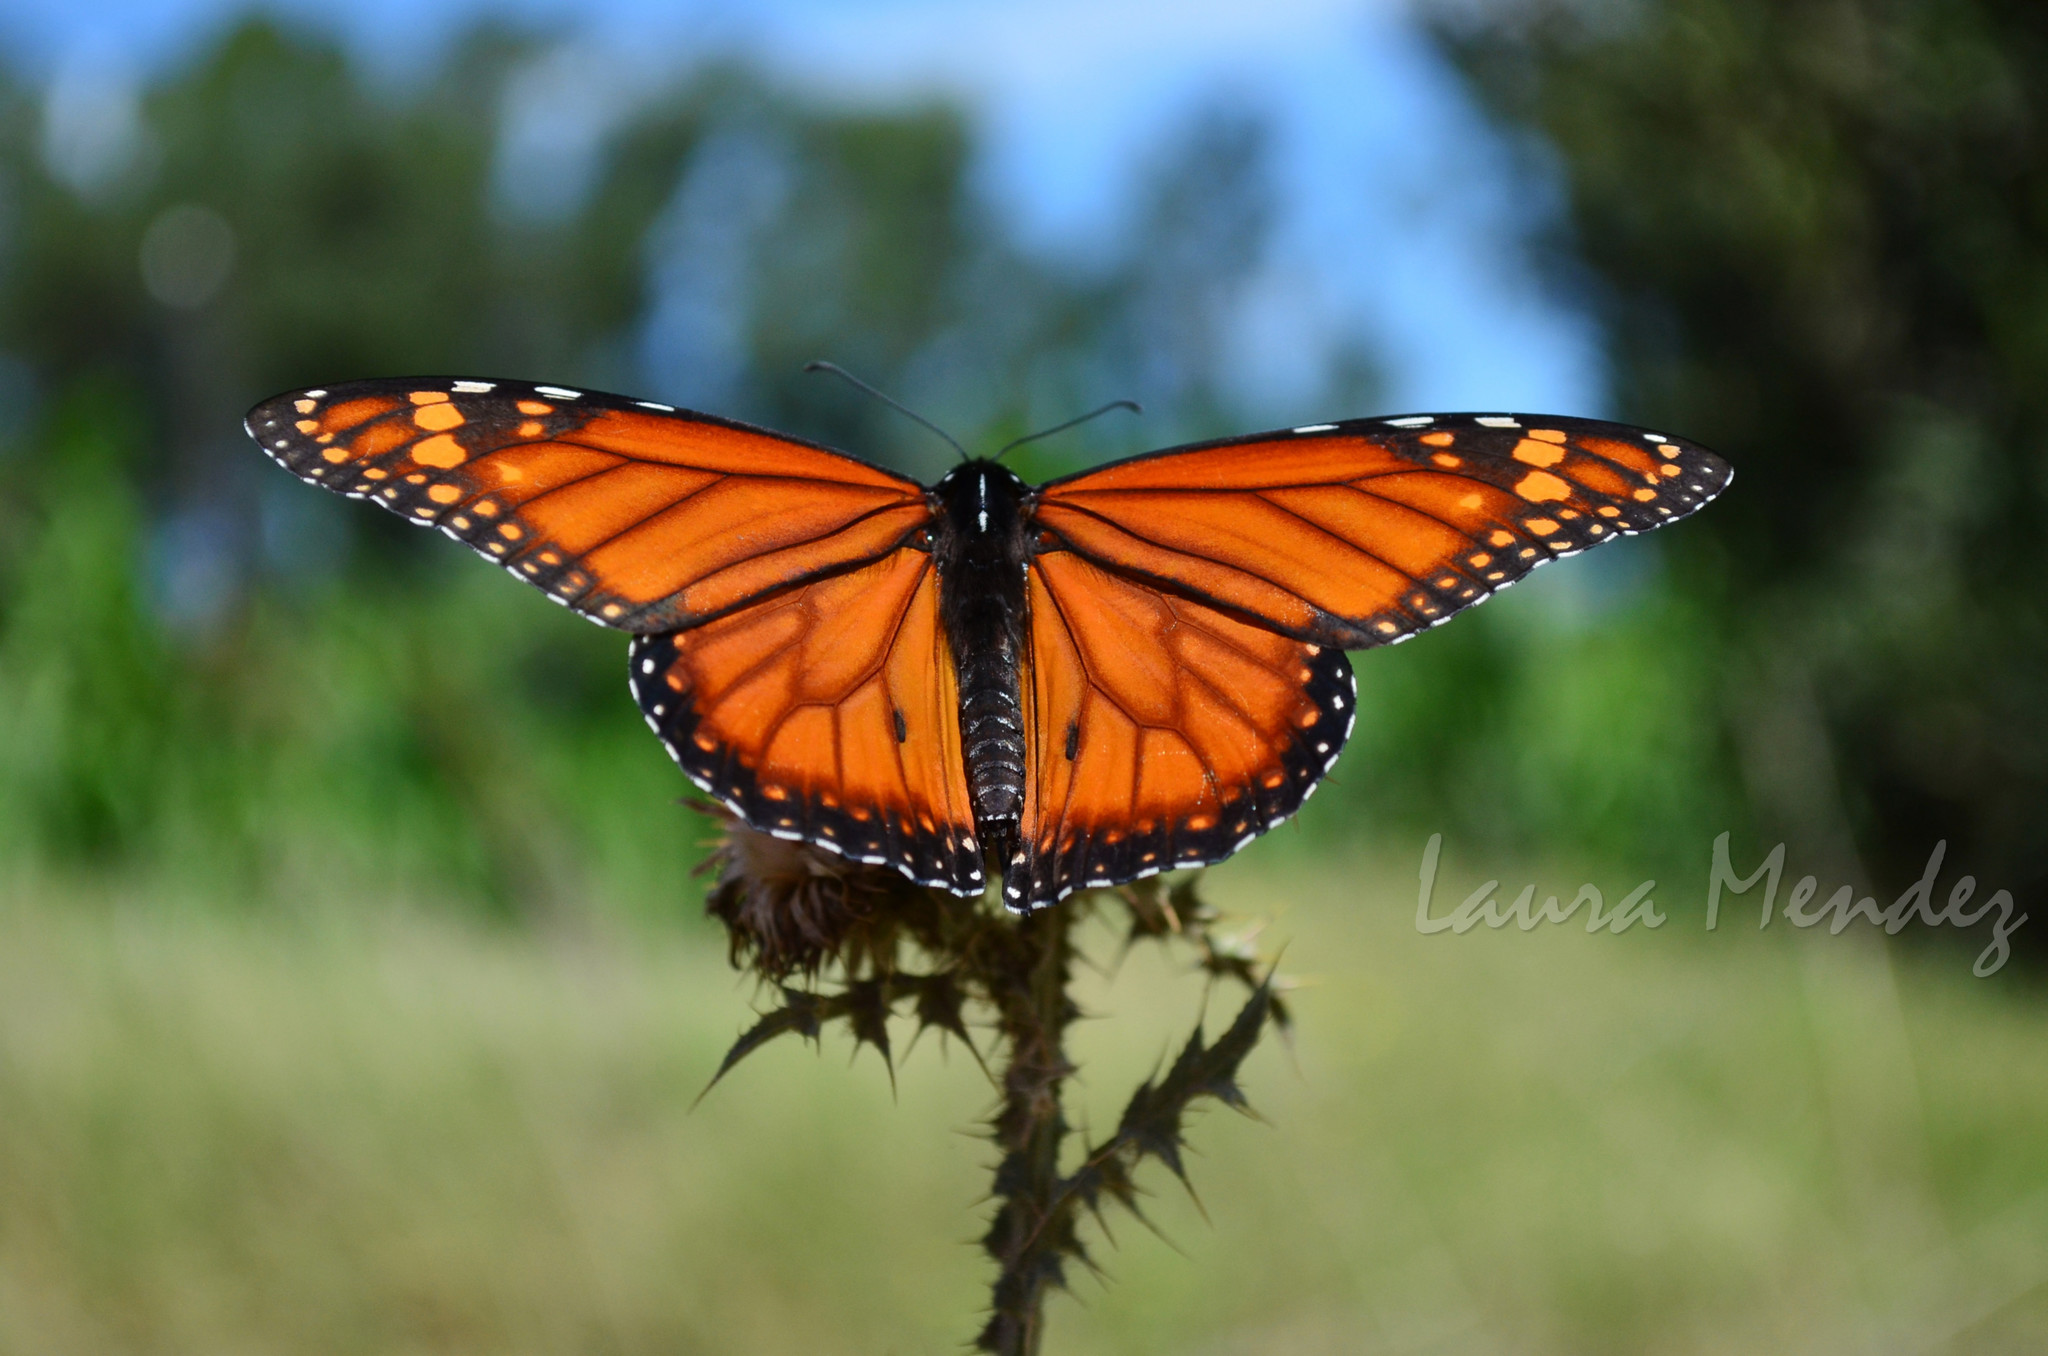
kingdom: Animalia
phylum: Arthropoda
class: Insecta
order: Lepidoptera
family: Nymphalidae
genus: Danaus
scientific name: Danaus erippus
